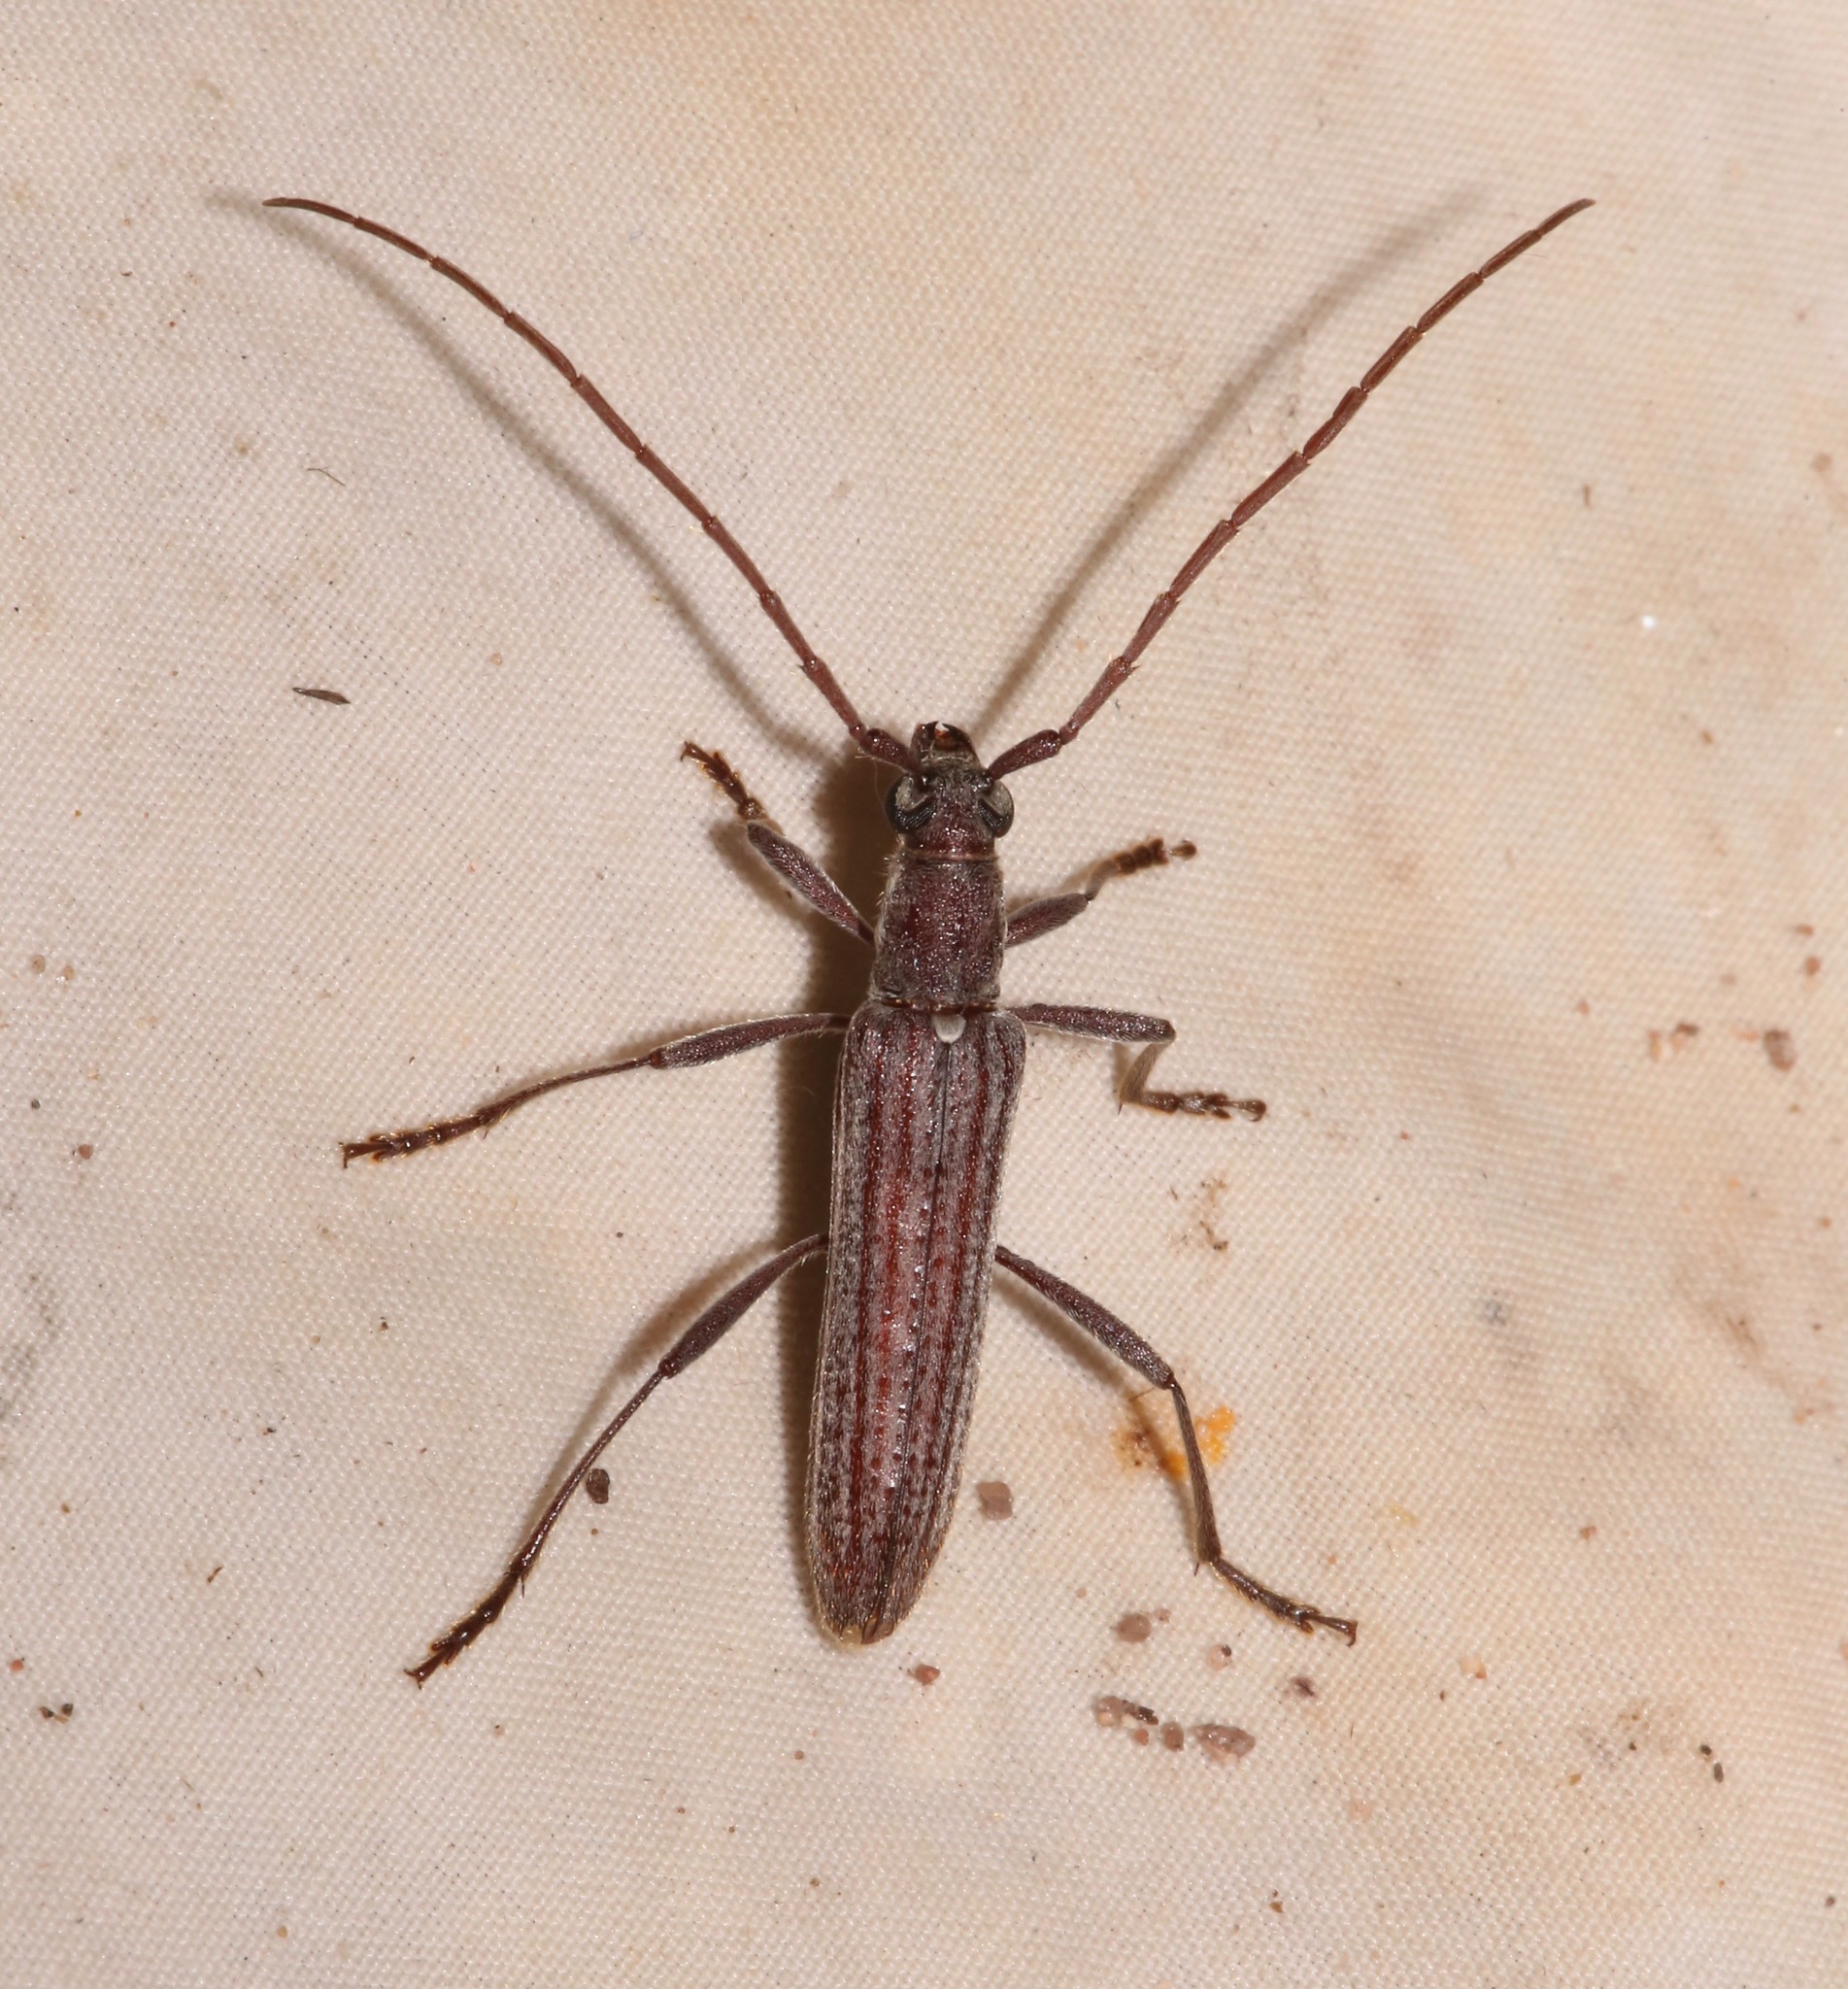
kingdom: Animalia
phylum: Arthropoda
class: Insecta
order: Coleoptera
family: Cerambycidae
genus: Aneflus
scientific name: Aneflus levettei
